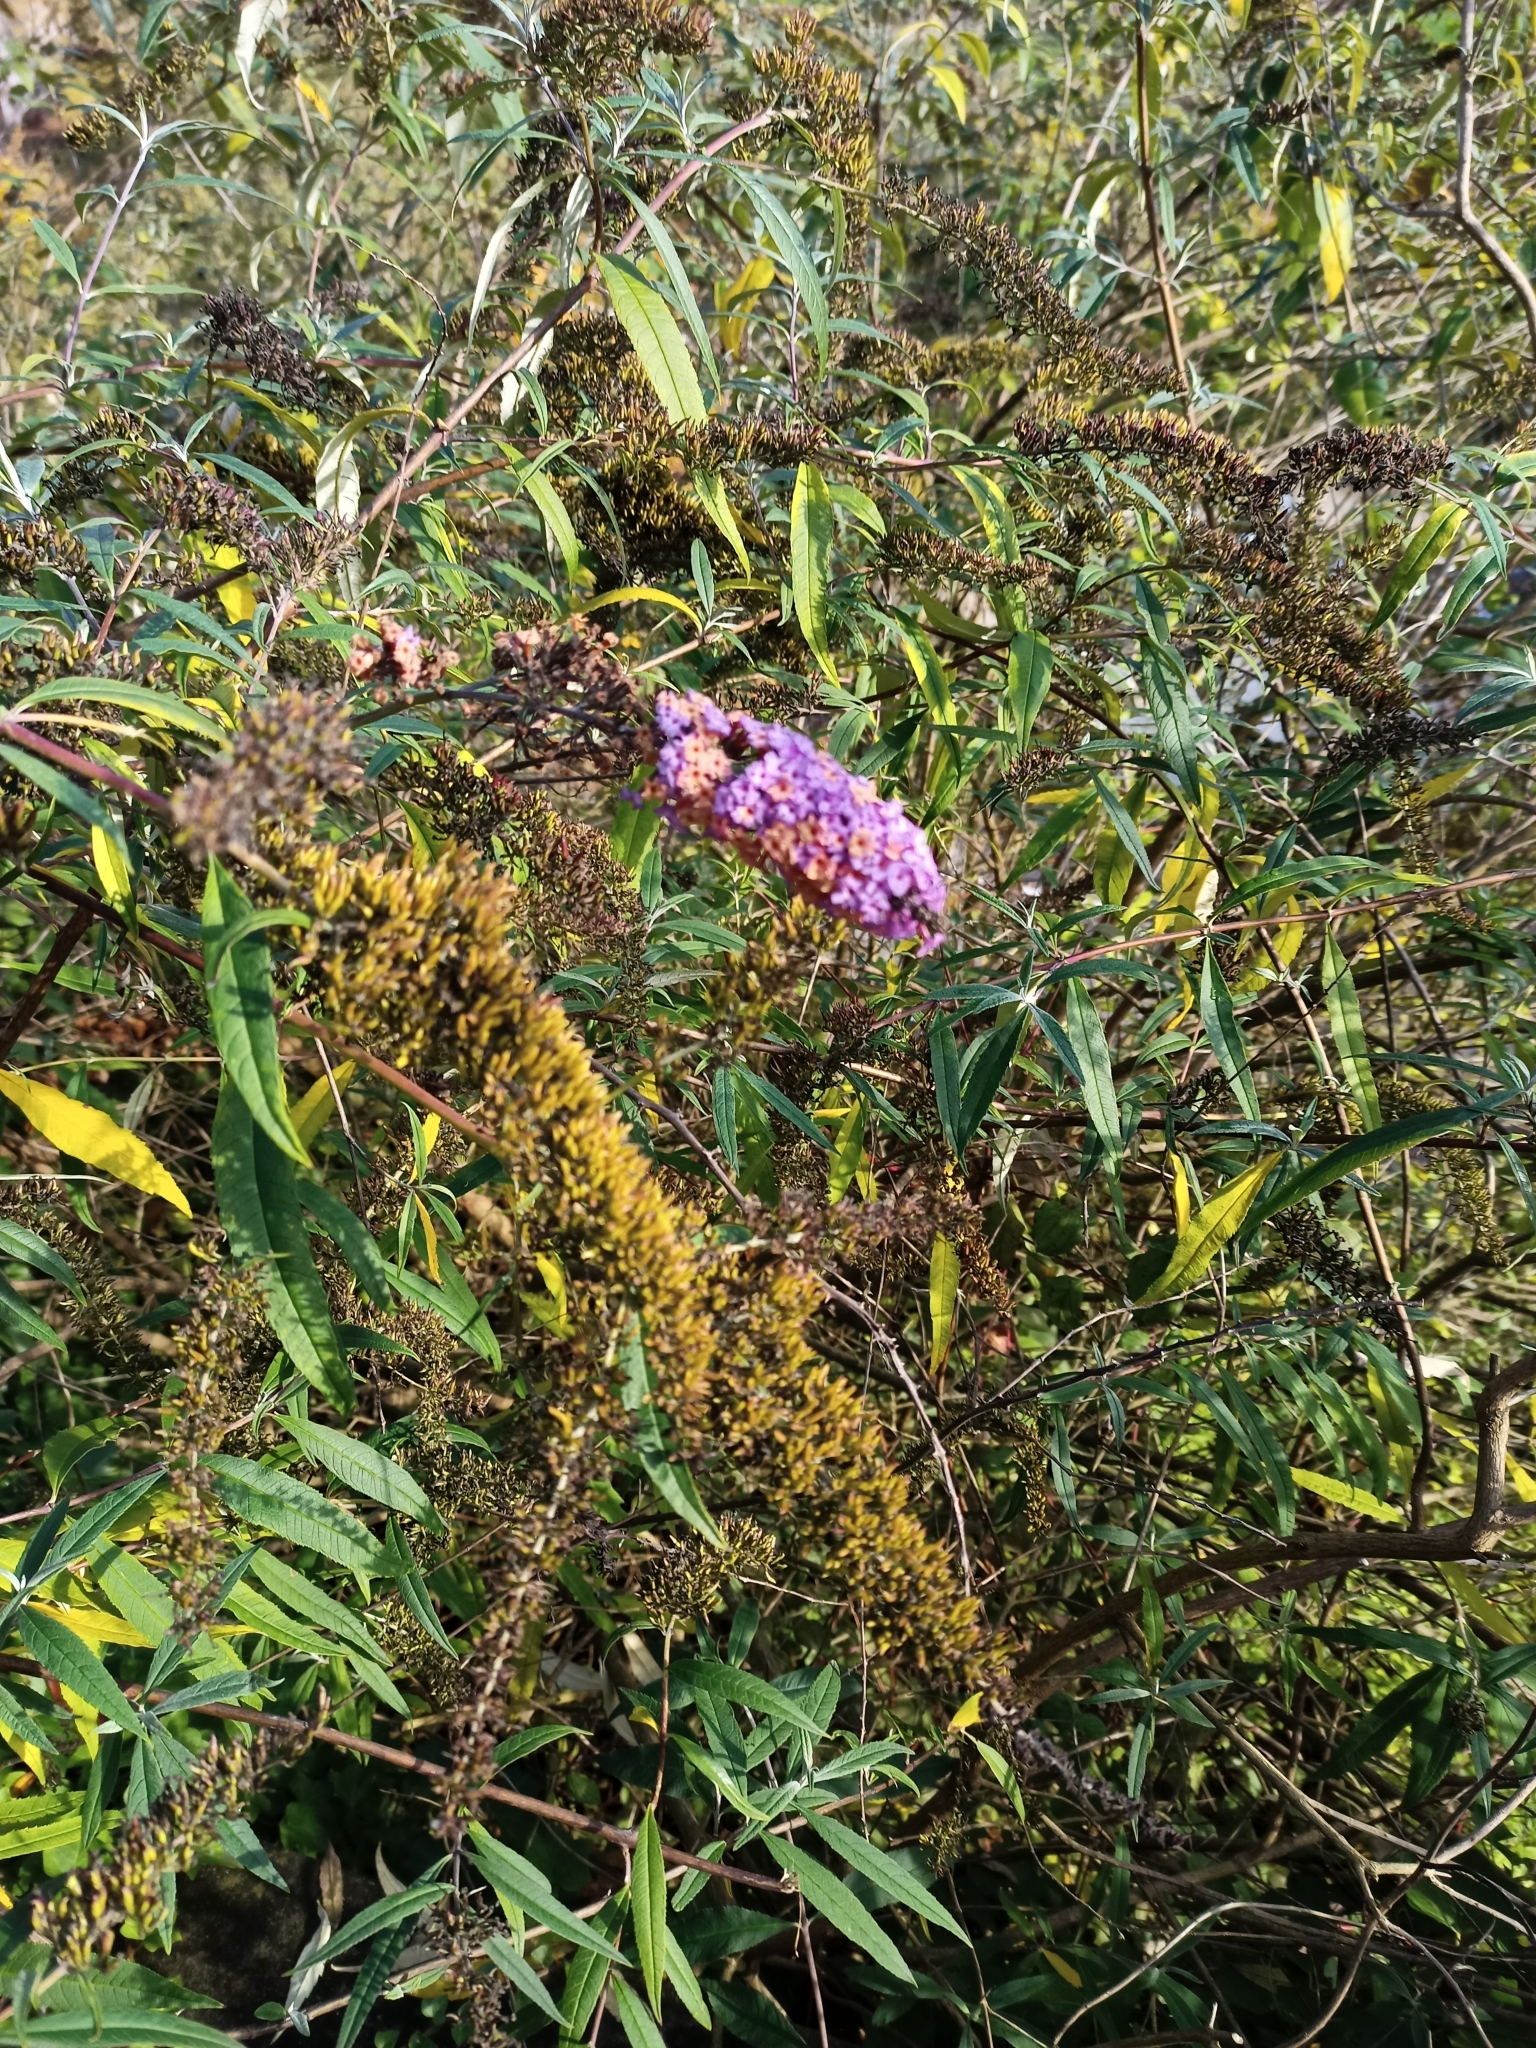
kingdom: Plantae
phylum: Tracheophyta
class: Magnoliopsida
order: Lamiales
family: Scrophulariaceae
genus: Buddleja
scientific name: Buddleja davidii
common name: Butterfly-bush
